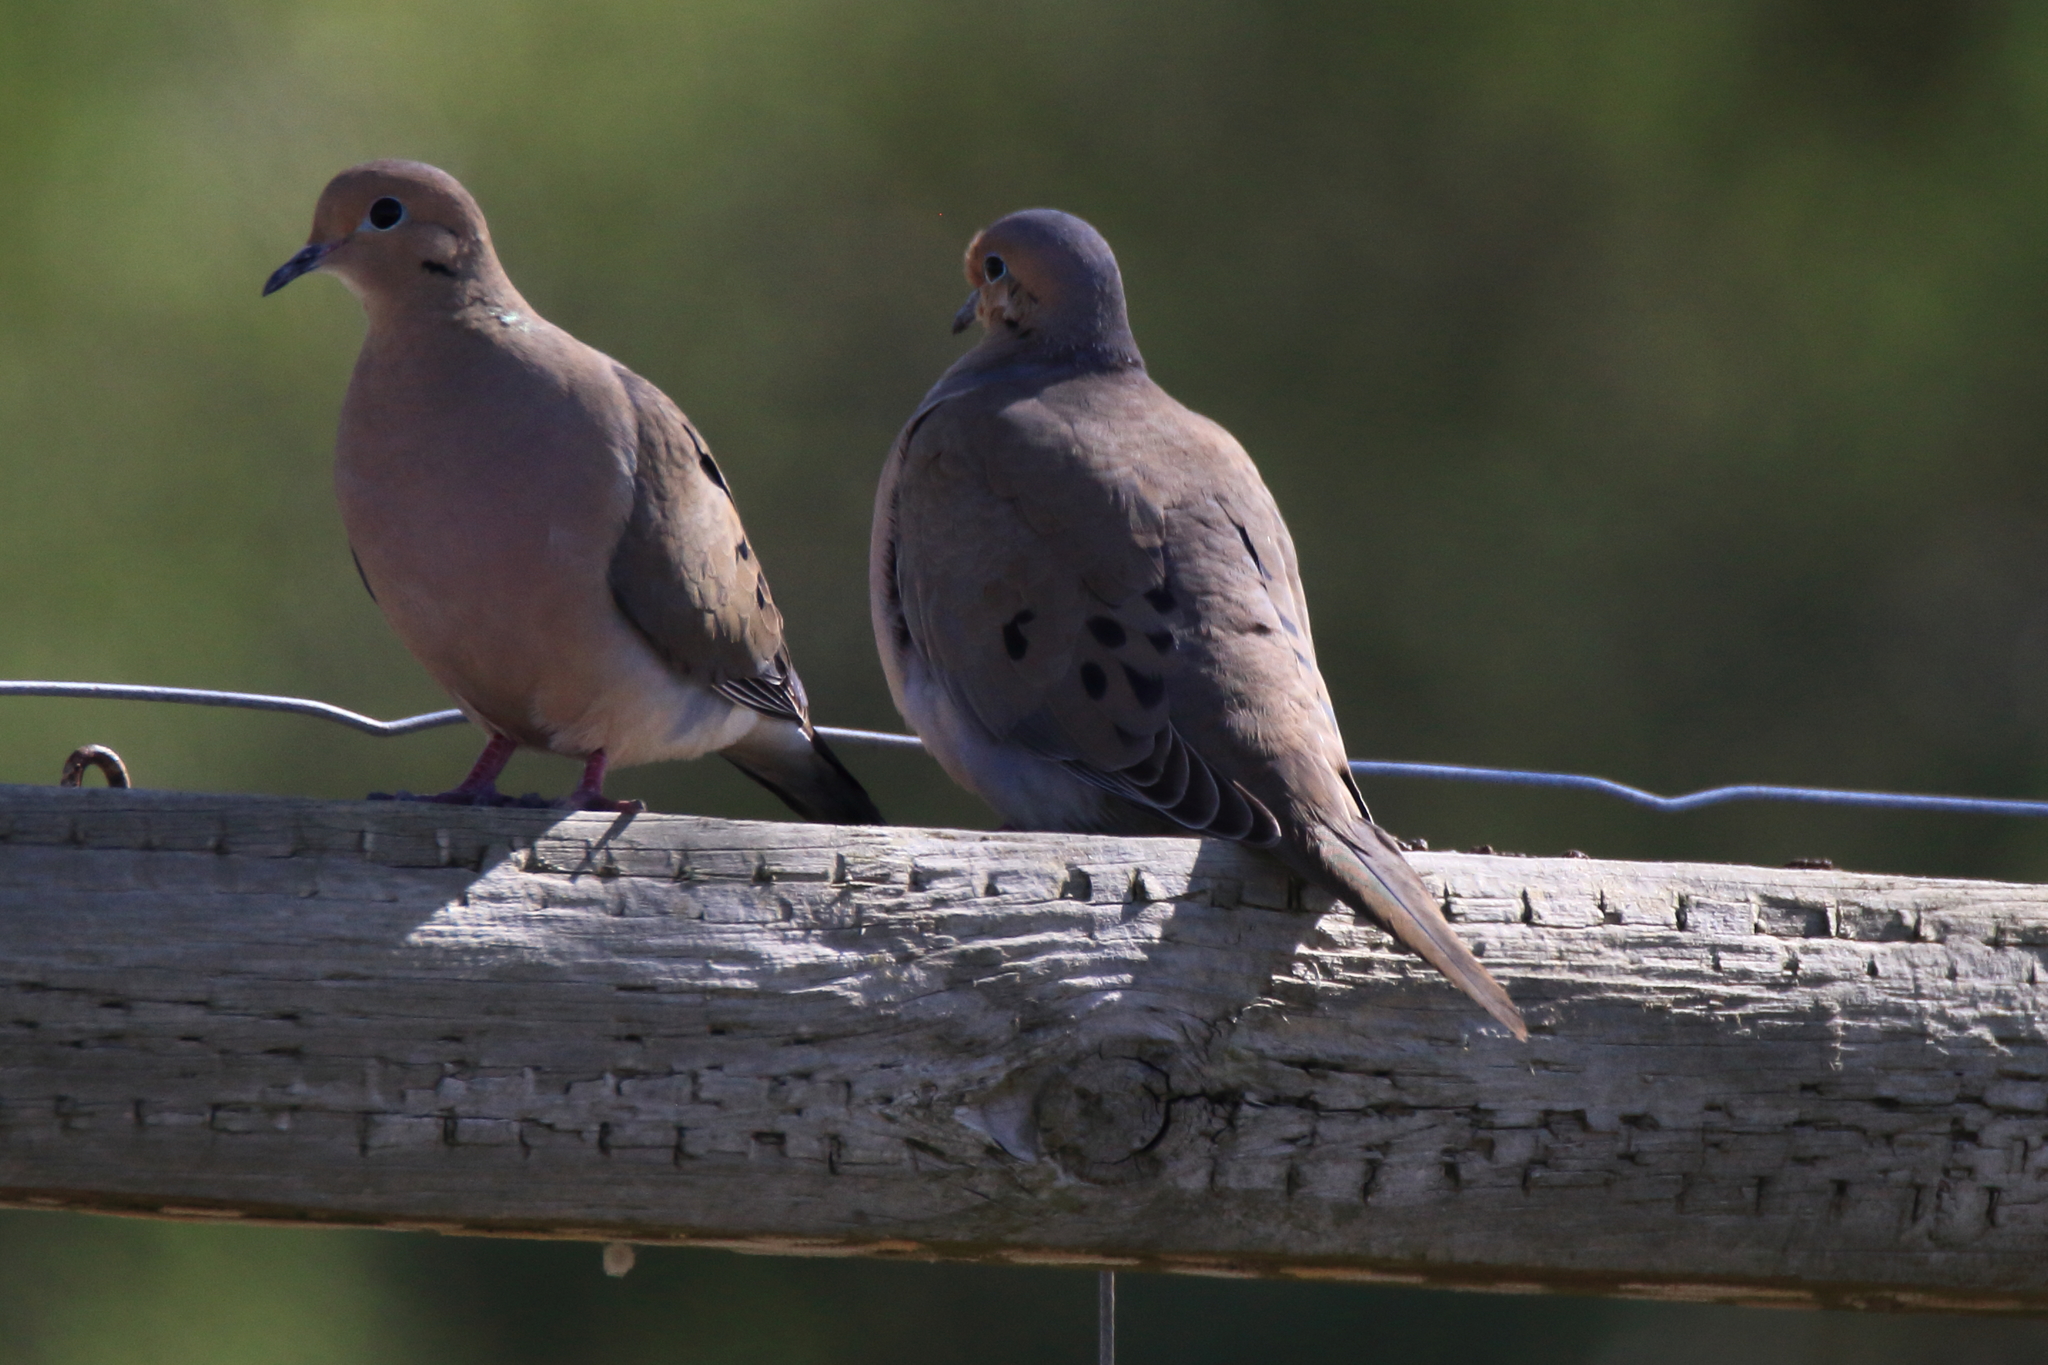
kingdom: Animalia
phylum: Chordata
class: Aves
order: Columbiformes
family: Columbidae
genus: Zenaida
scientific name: Zenaida macroura
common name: Mourning dove
